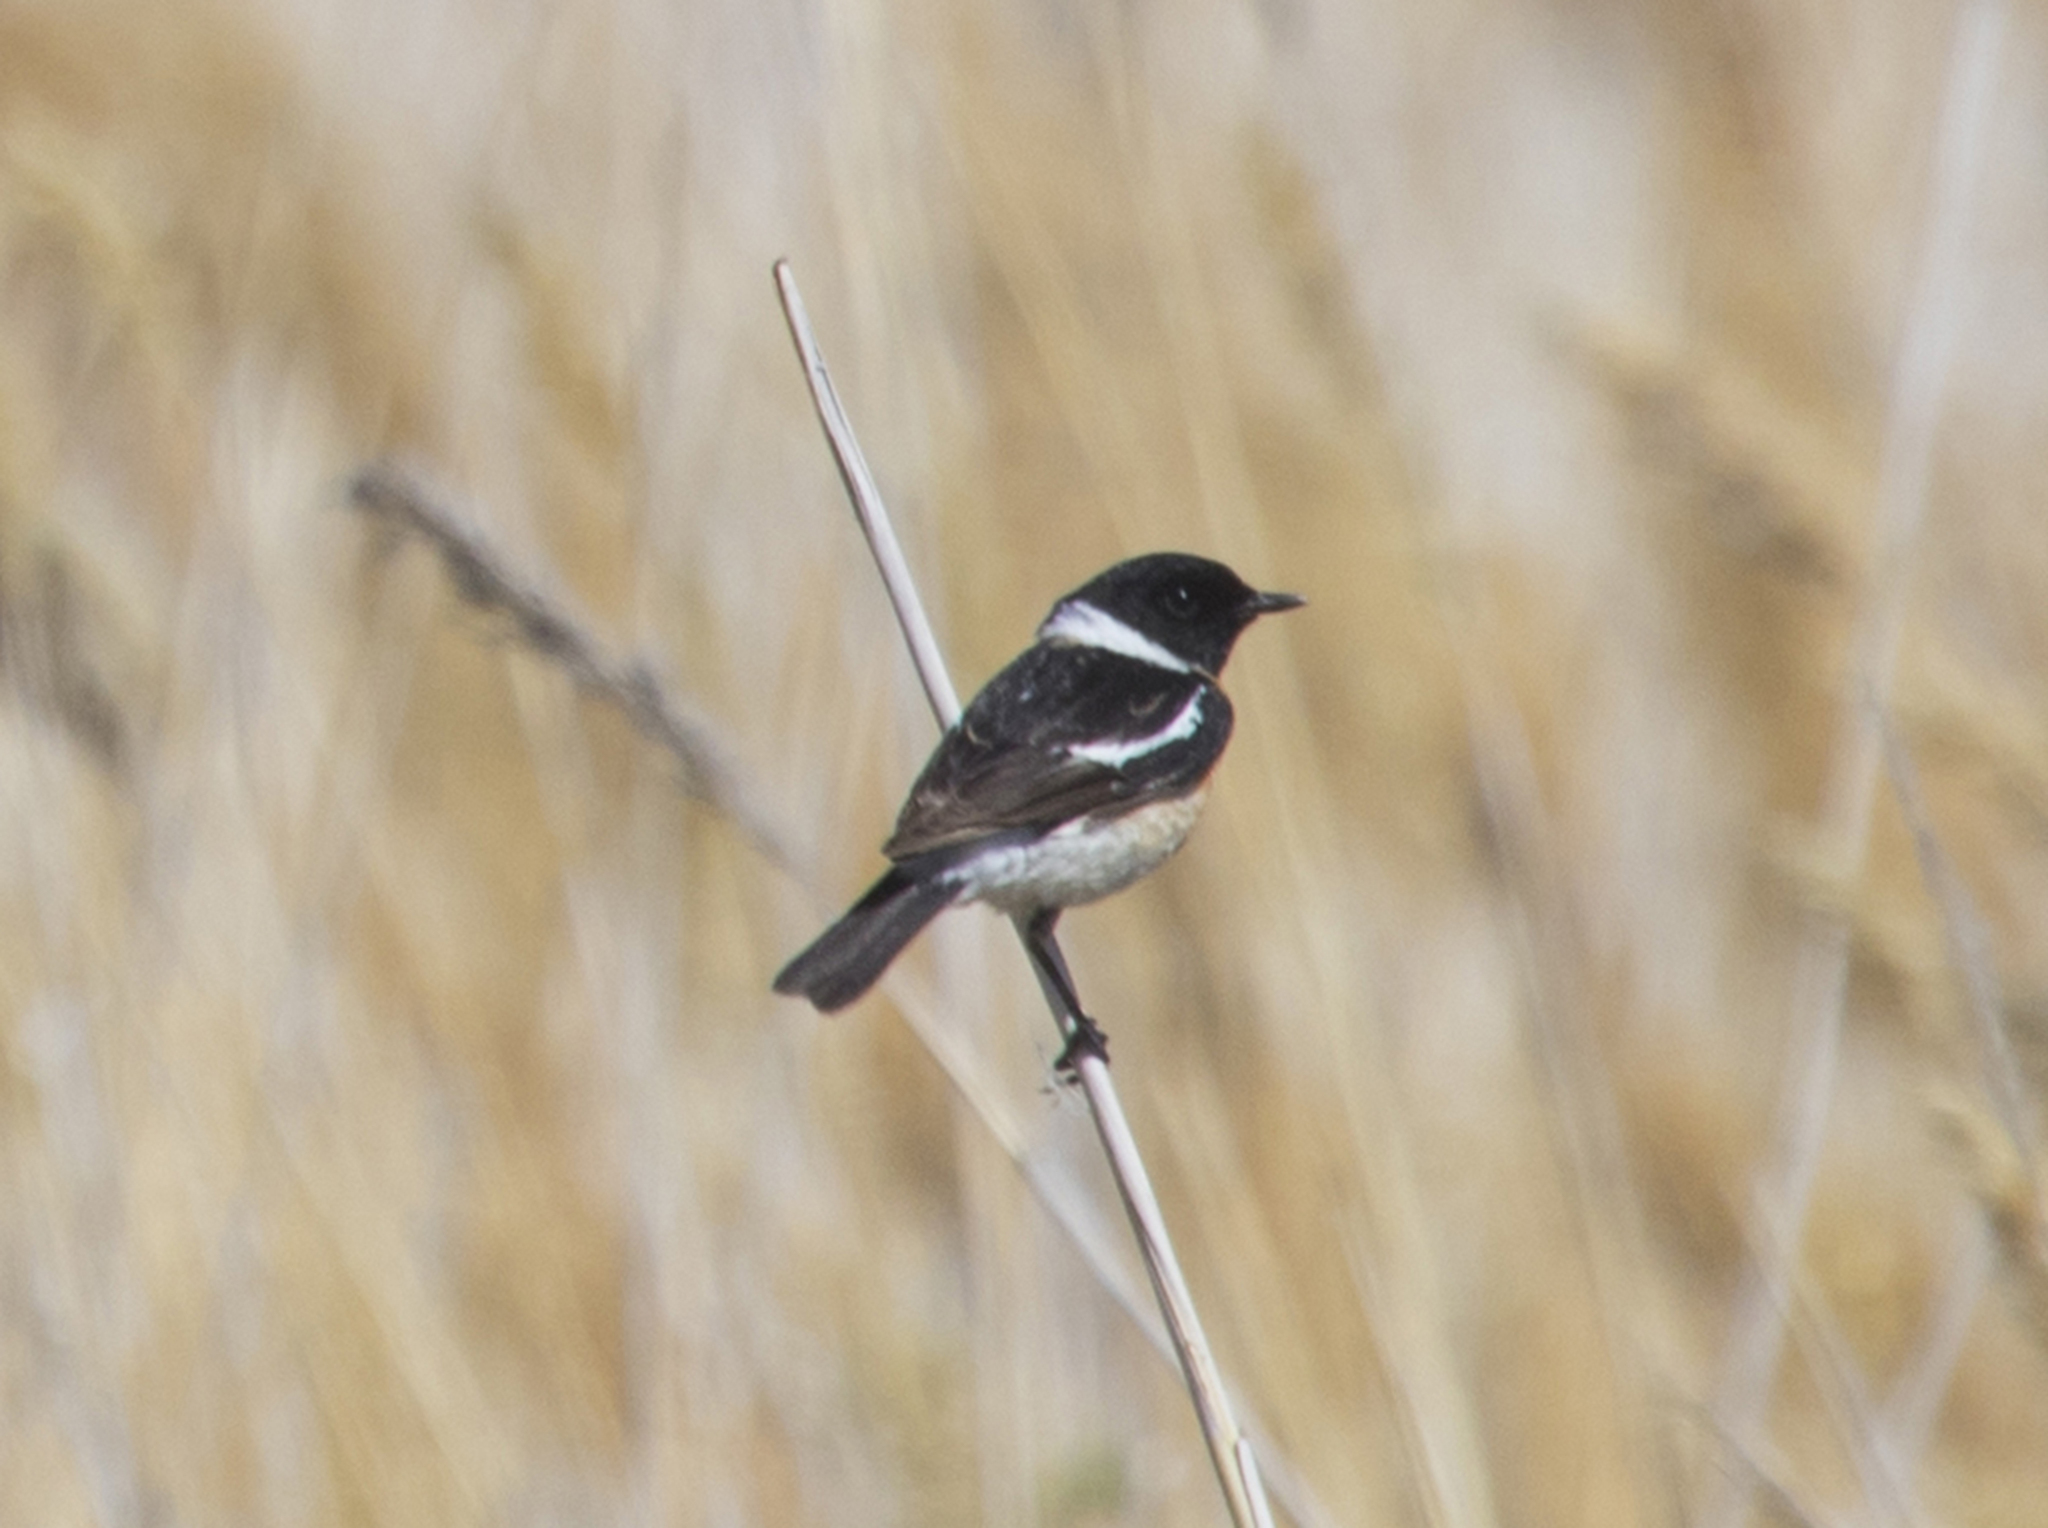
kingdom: Animalia
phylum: Chordata
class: Aves
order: Passeriformes
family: Muscicapidae
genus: Saxicola
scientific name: Saxicola maurus
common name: Siberian stonechat
